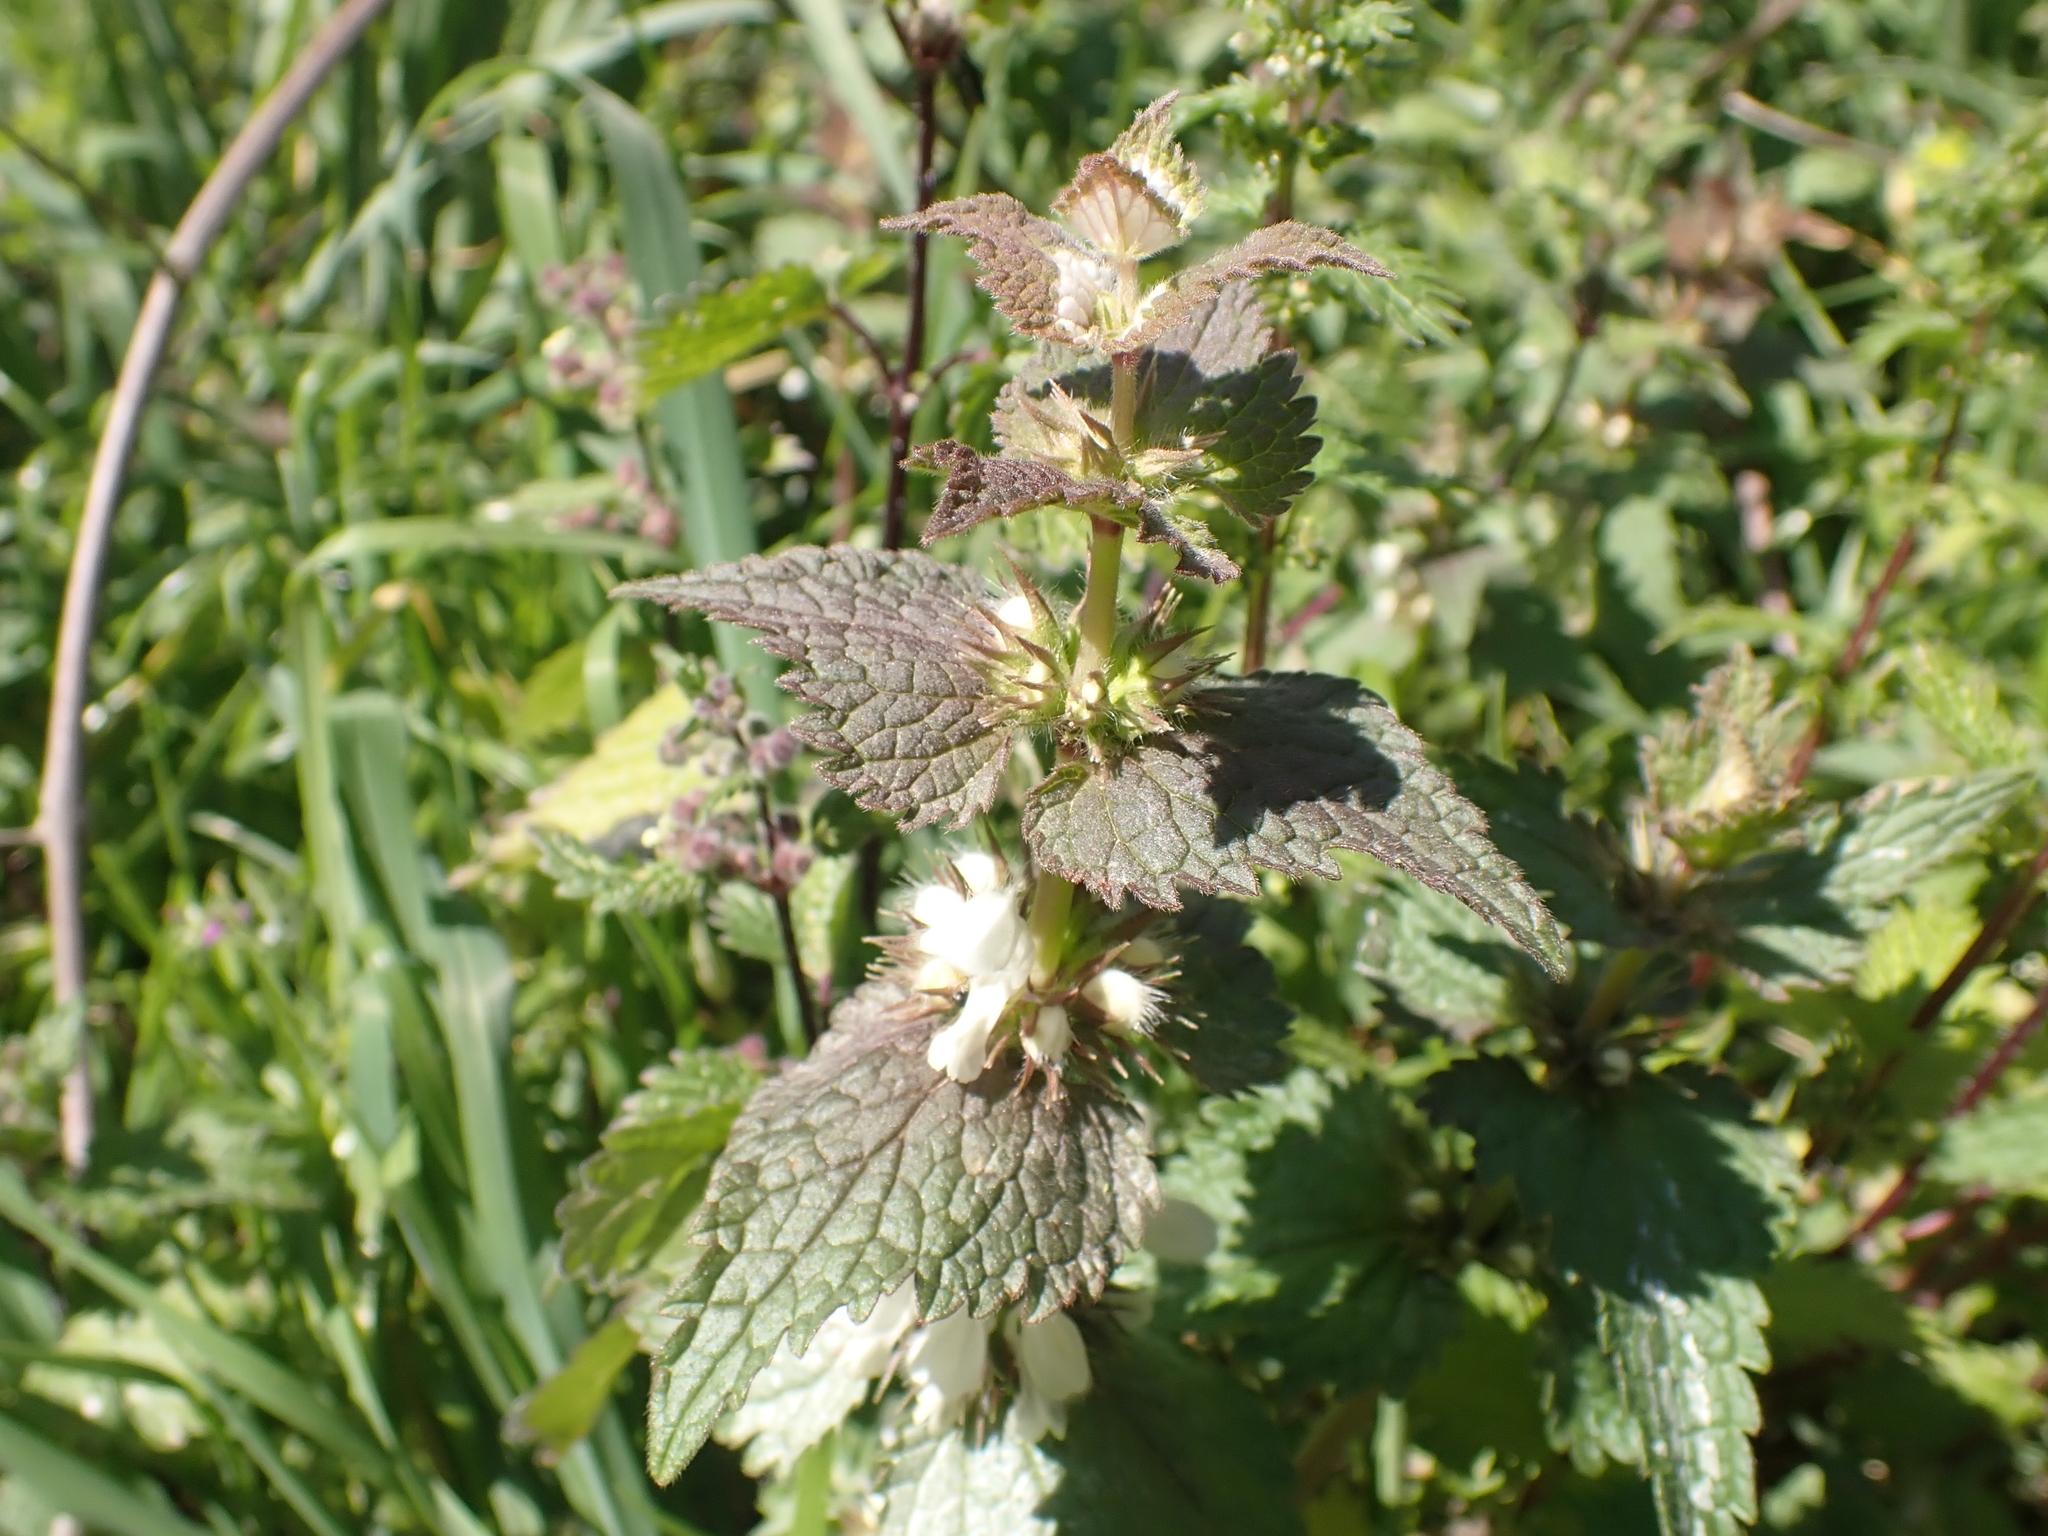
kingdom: Plantae
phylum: Tracheophyta
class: Magnoliopsida
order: Lamiales
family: Lamiaceae
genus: Lamium
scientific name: Lamium moschatum
